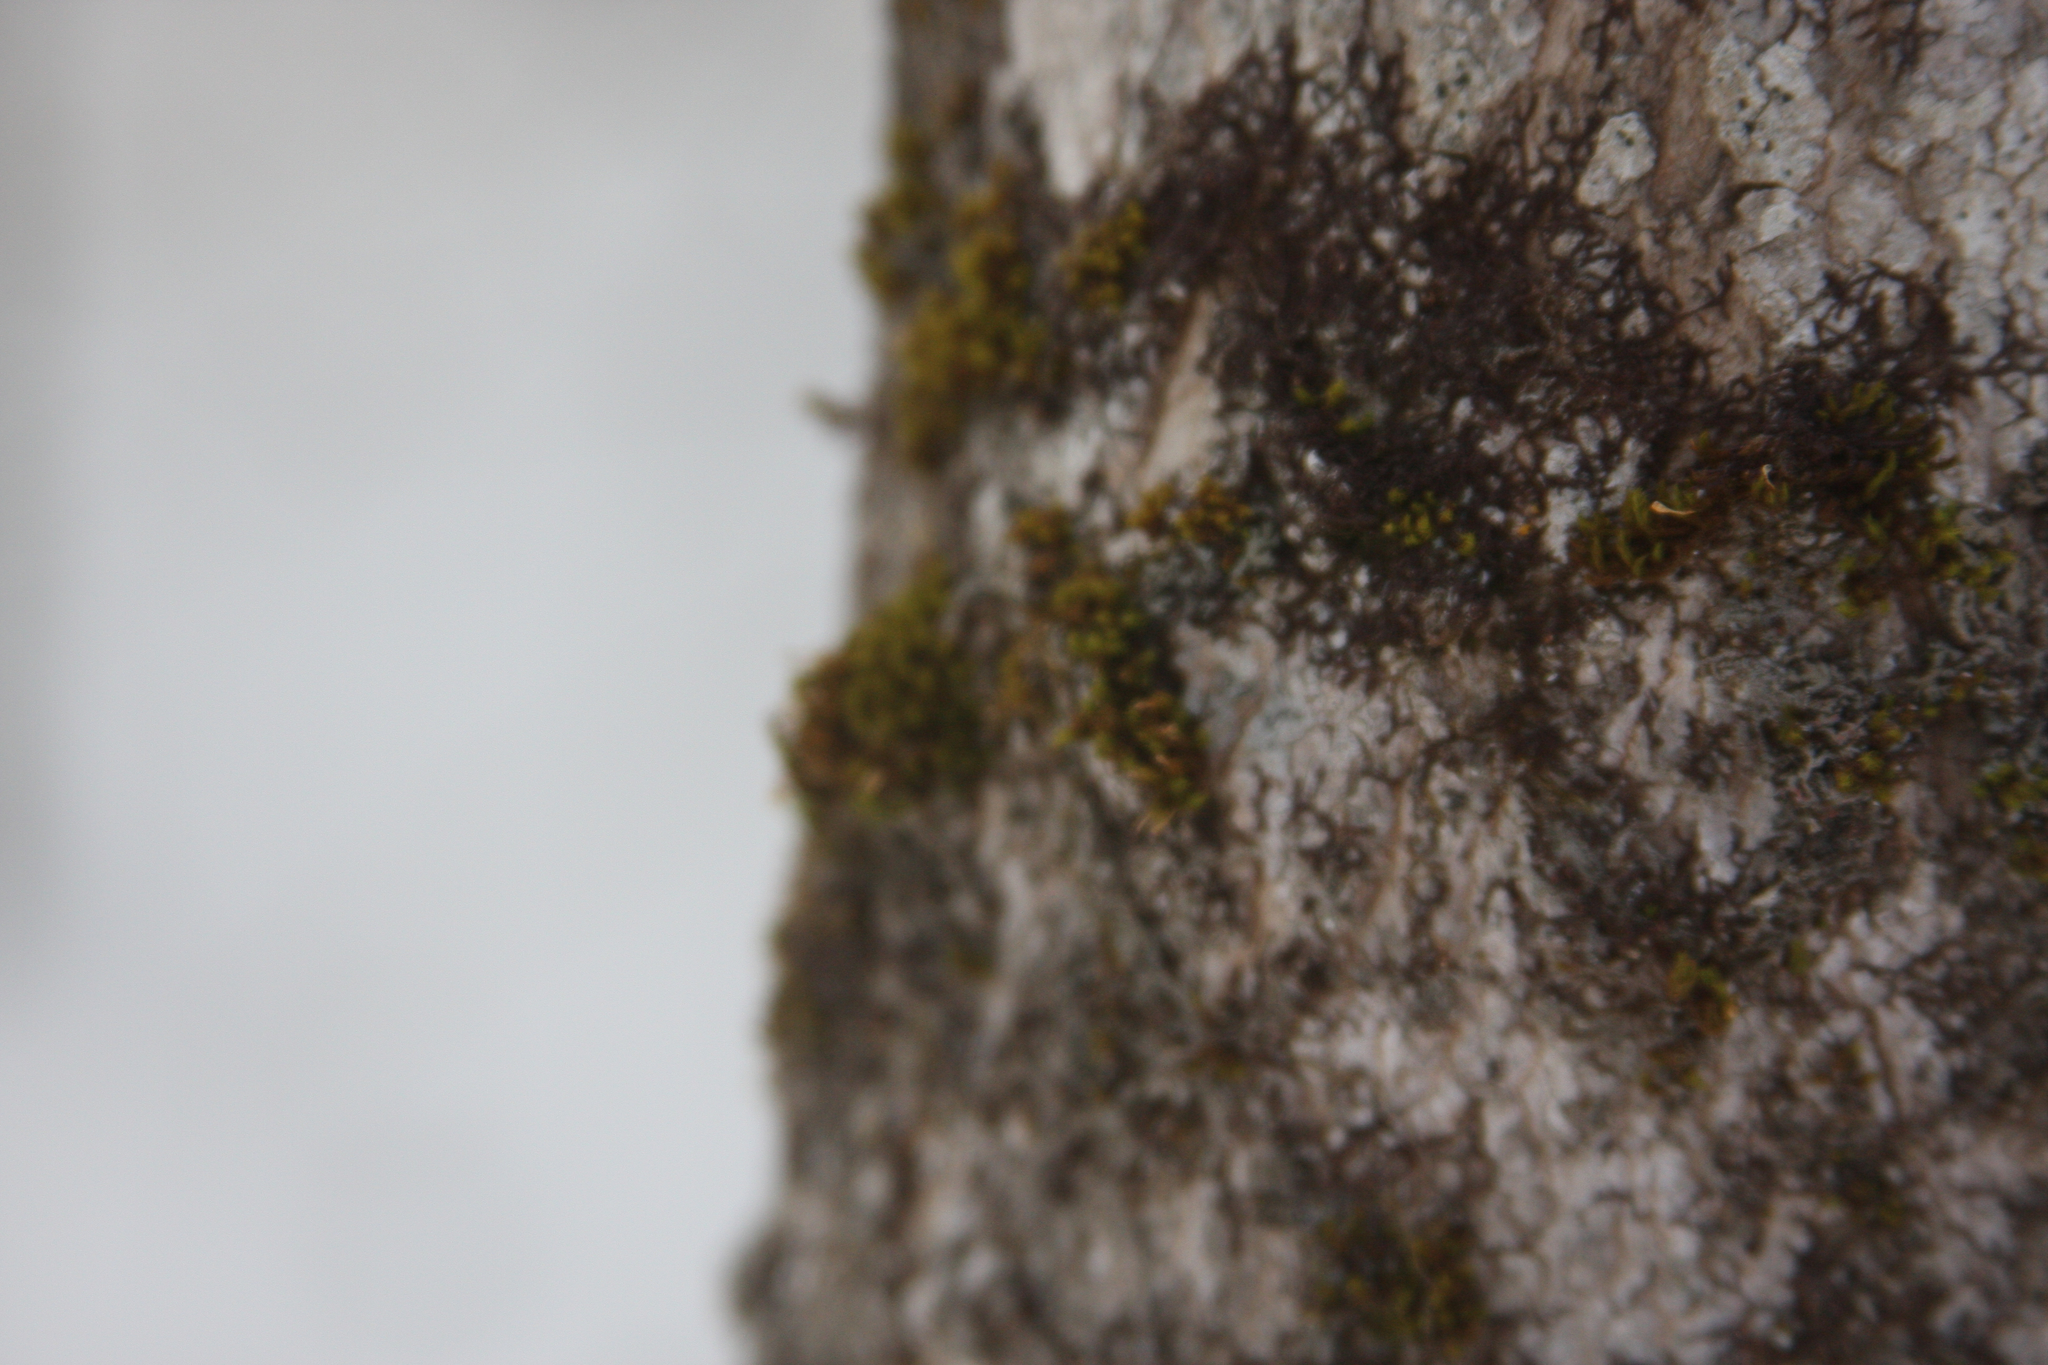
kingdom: Plantae
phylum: Bryophyta
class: Bryopsida
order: Orthotrichales
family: Orthotrichaceae
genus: Ulota
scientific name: Ulota crispa
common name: Crisped pincushion moss
